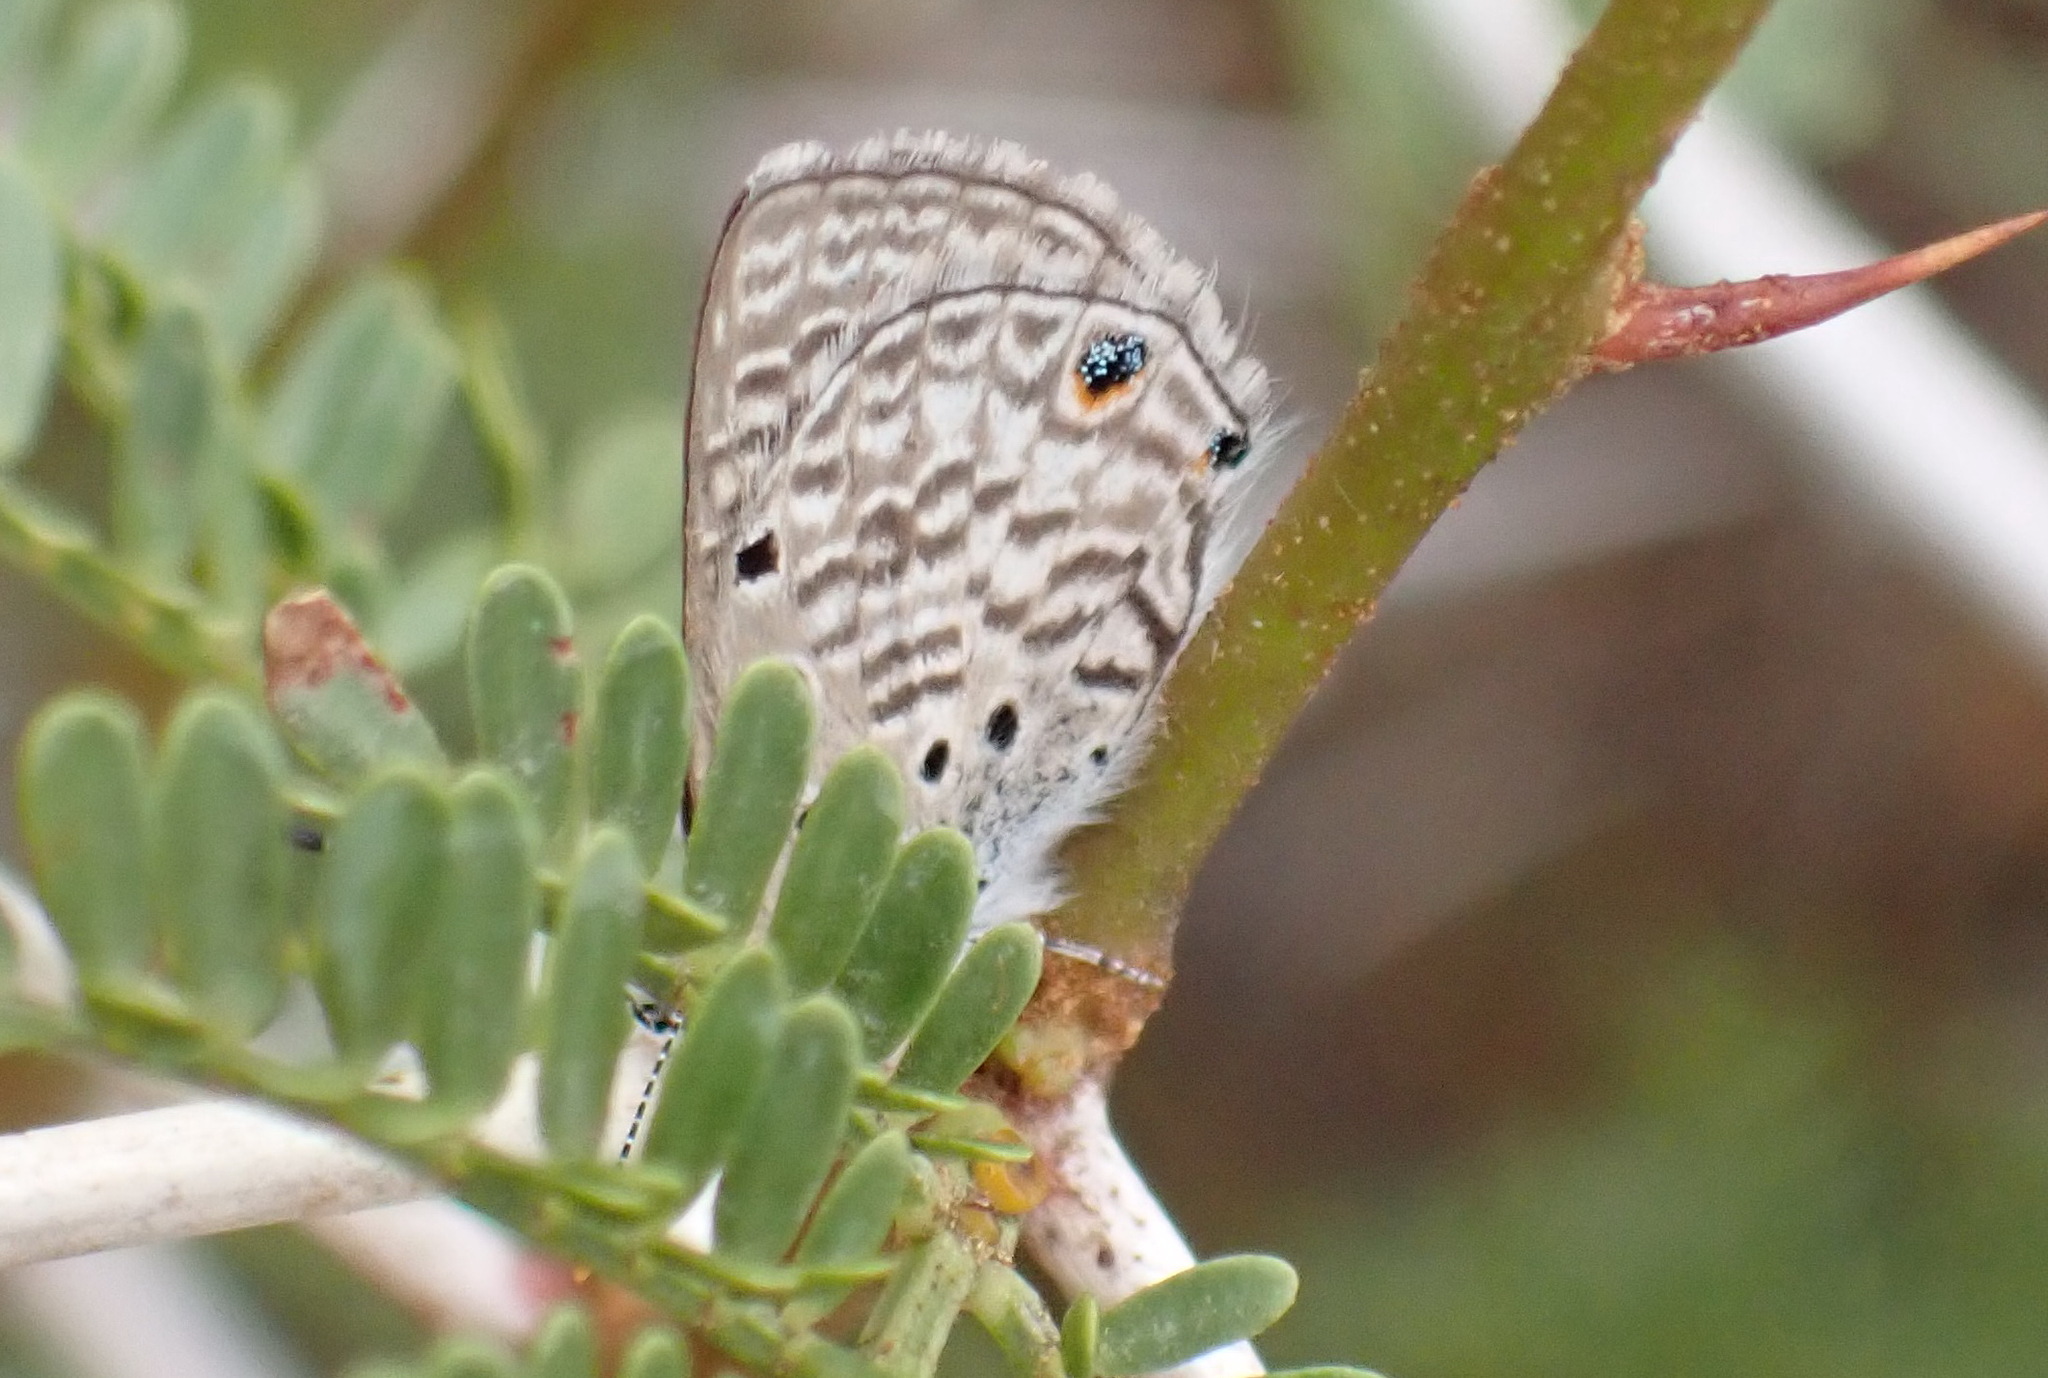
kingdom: Animalia
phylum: Arthropoda
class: Insecta
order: Lepidoptera
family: Lycaenidae
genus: Anthene
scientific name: Anthene amarah
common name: Black-striped hairtail
